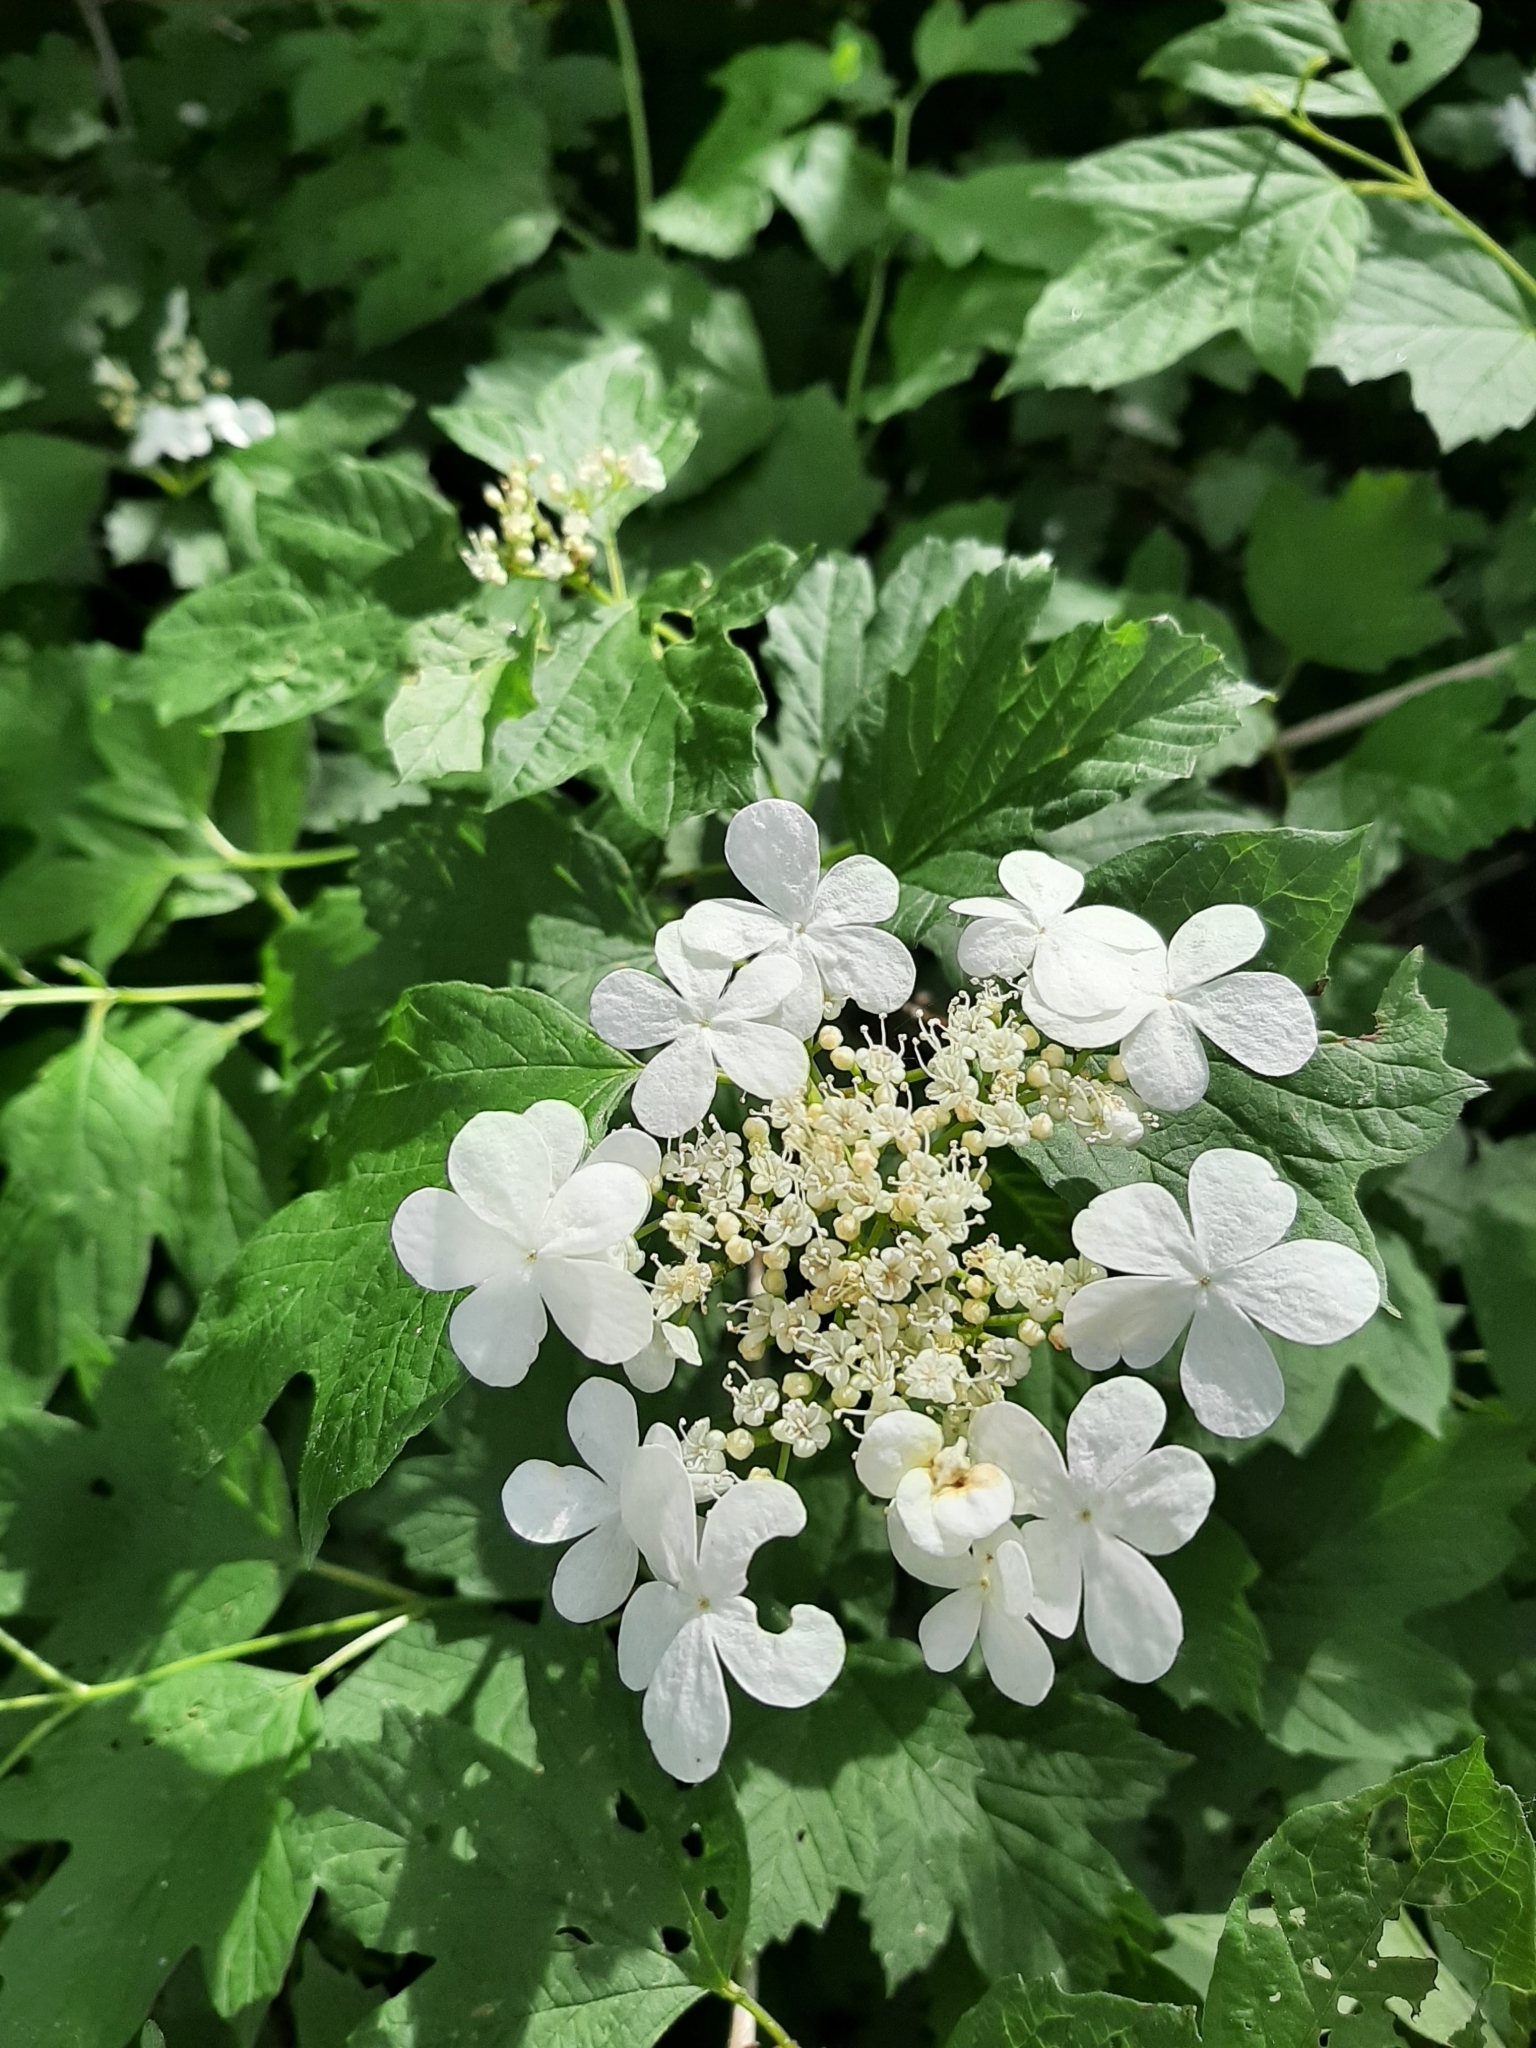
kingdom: Plantae
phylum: Tracheophyta
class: Magnoliopsida
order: Dipsacales
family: Viburnaceae
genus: Viburnum
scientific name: Viburnum opulus
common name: Guelder-rose
